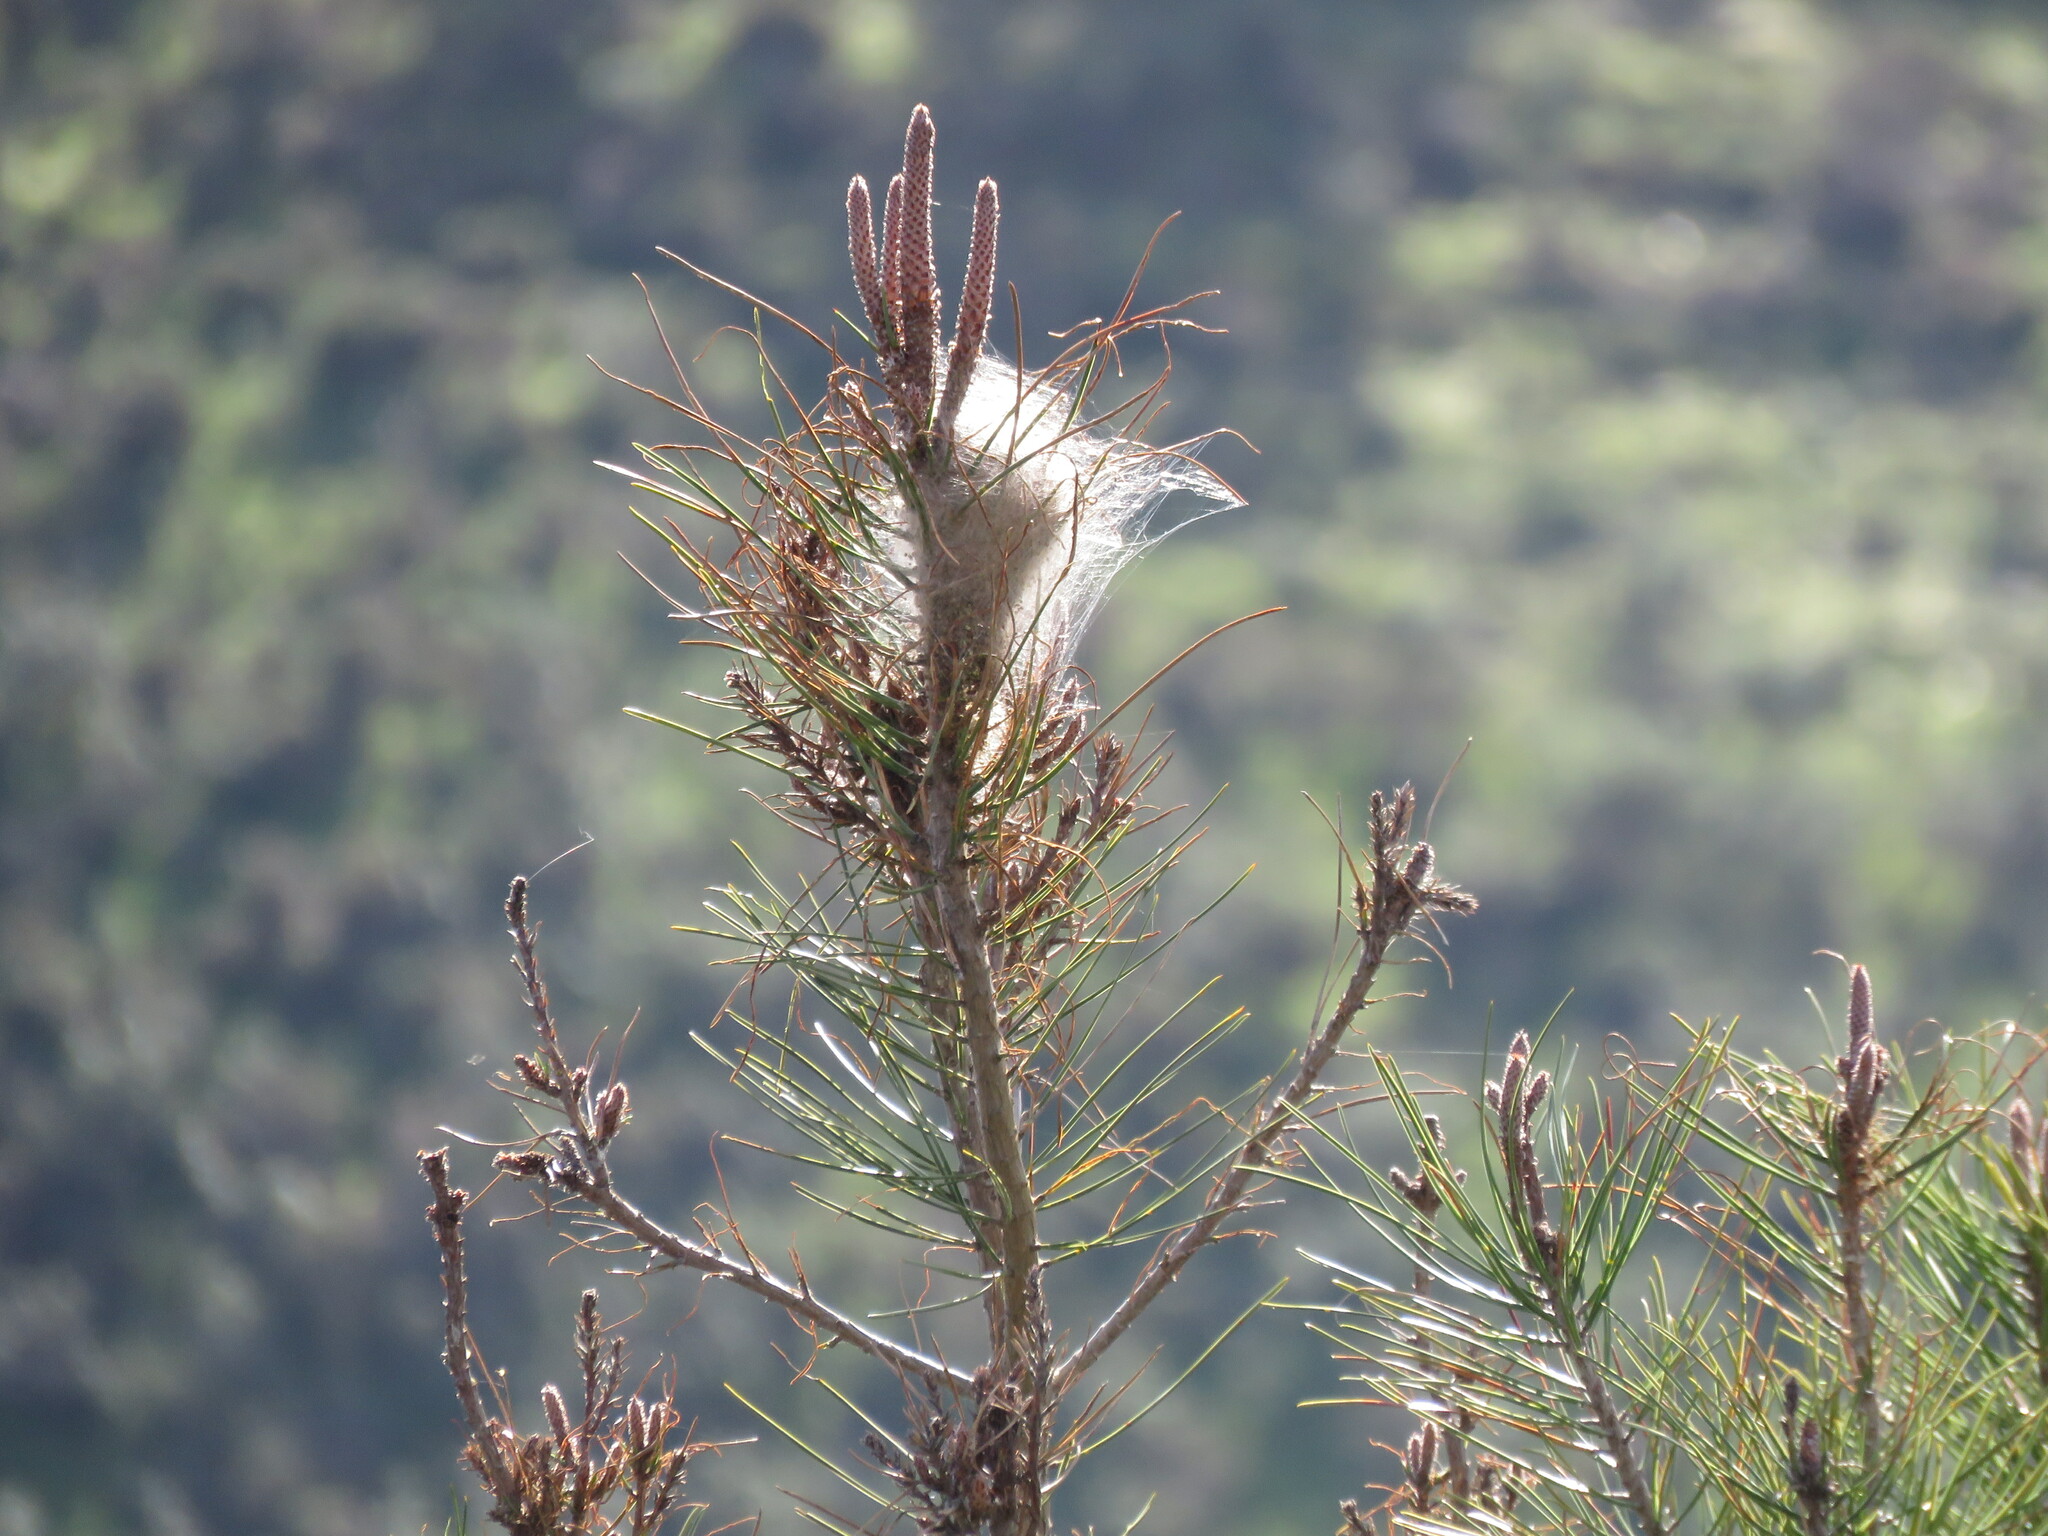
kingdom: Animalia
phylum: Arthropoda
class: Insecta
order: Lepidoptera
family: Notodontidae
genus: Thaumetopoea
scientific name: Thaumetopoea pityocampa
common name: Pine processionary
